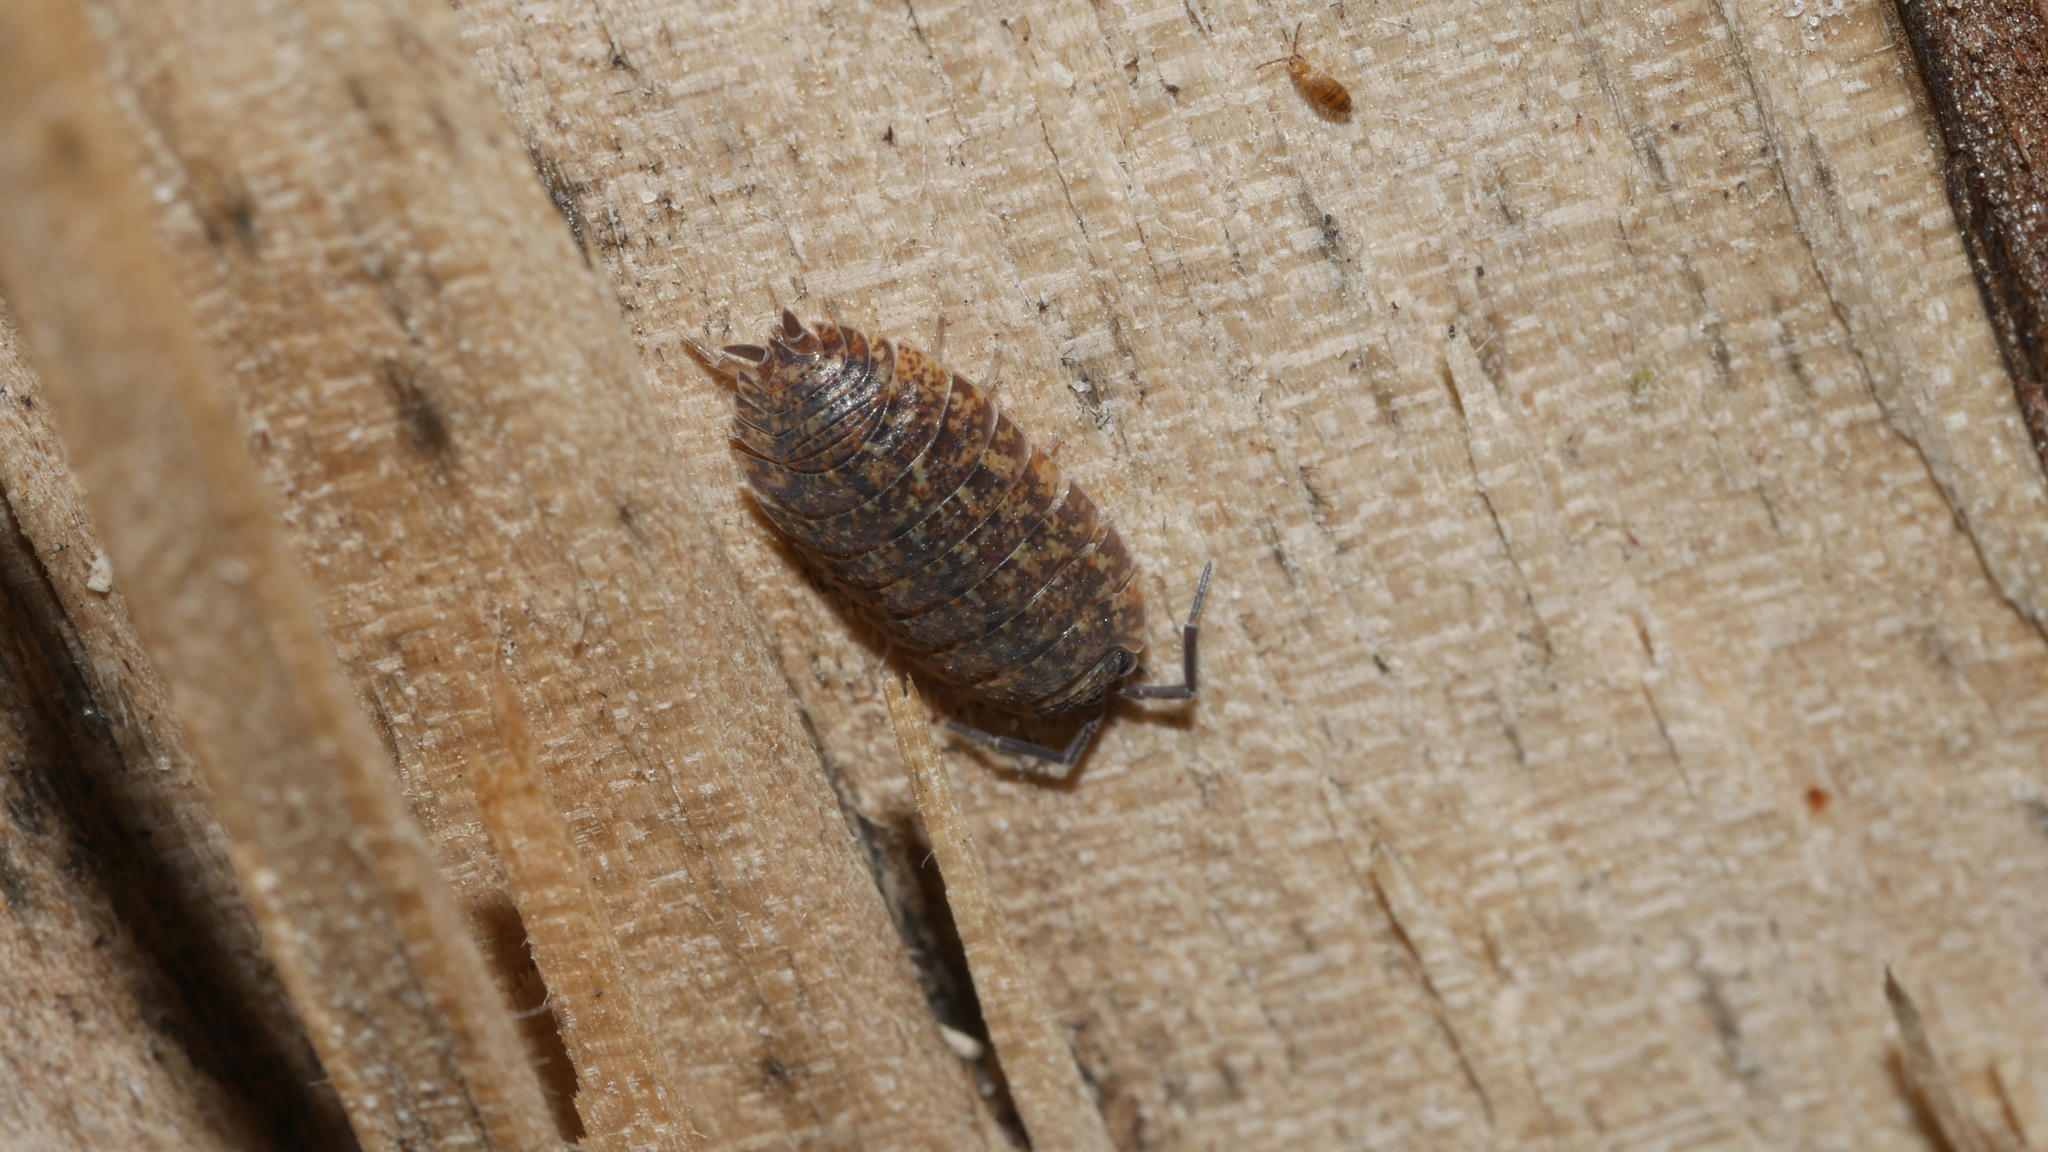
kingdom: Animalia
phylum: Arthropoda
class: Malacostraca
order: Isopoda
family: Porcellionidae
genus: Porcellio
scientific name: Porcellio scaber
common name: Common rough woodlouse
